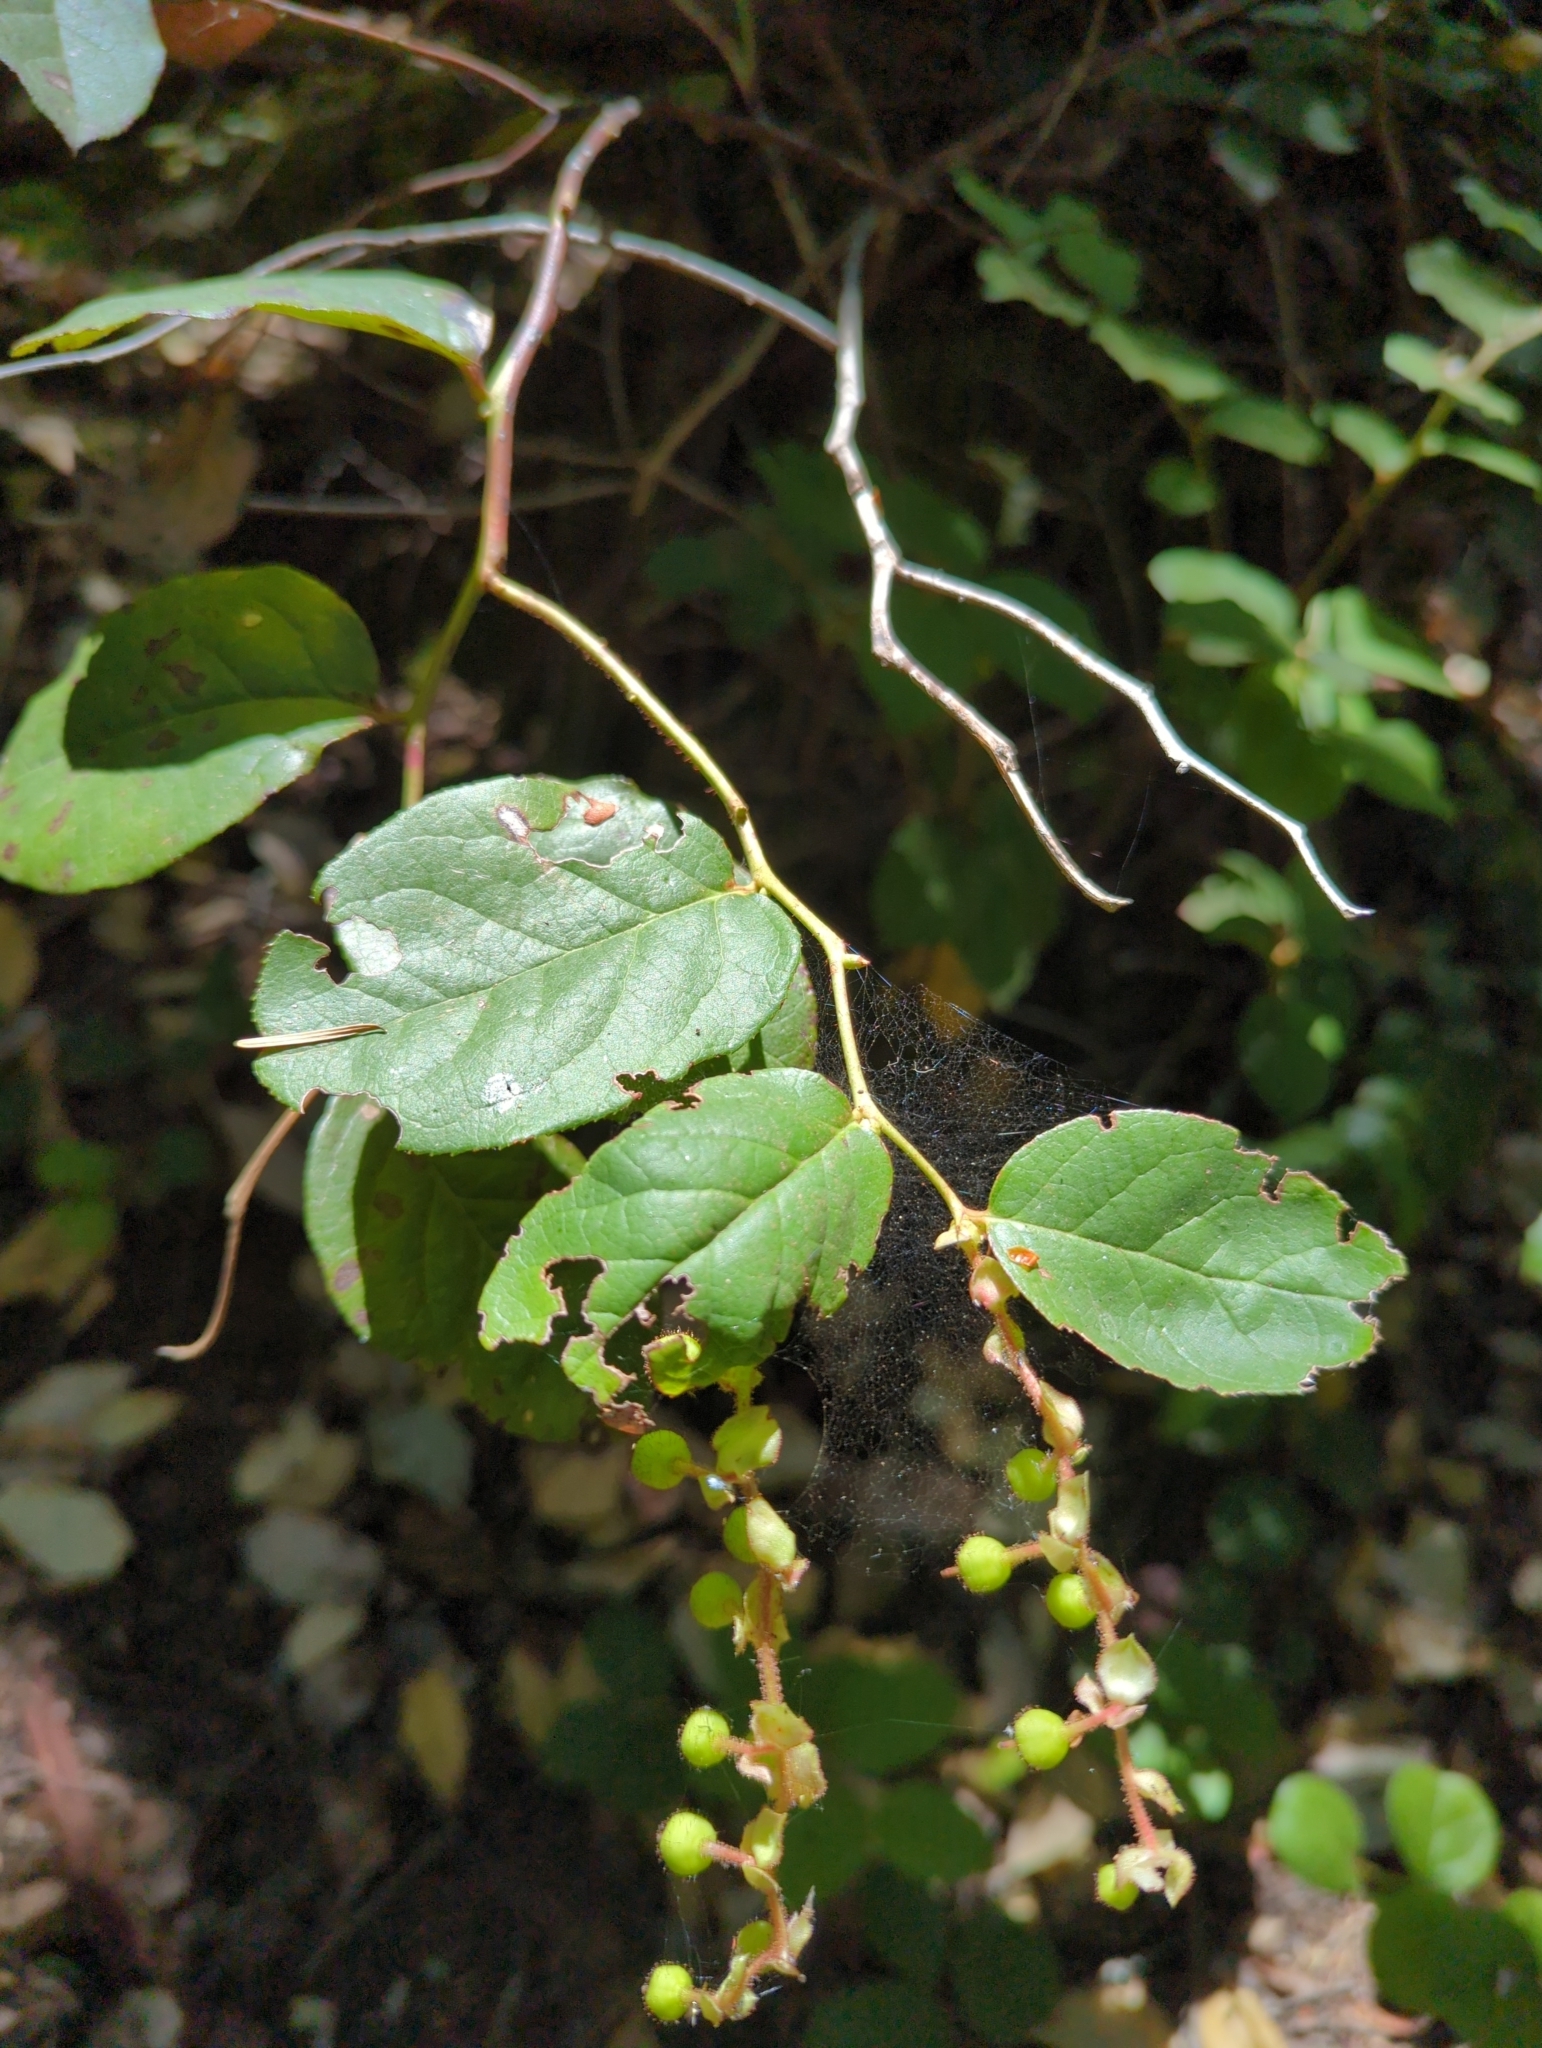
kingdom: Plantae
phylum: Tracheophyta
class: Magnoliopsida
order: Ericales
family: Ericaceae
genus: Gaultheria
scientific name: Gaultheria shallon
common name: Shallon
